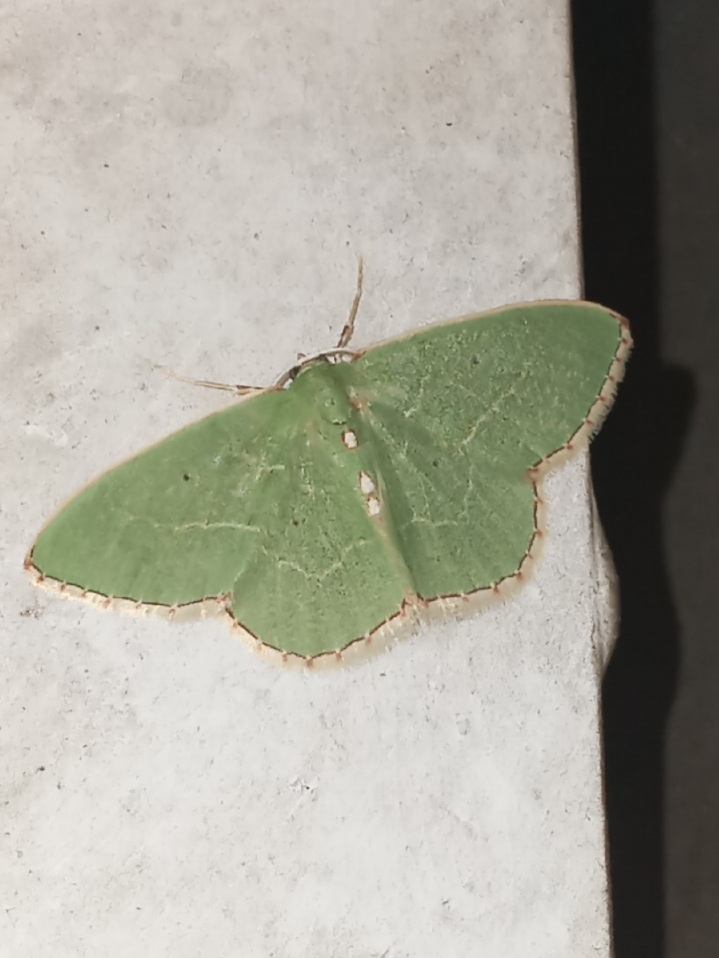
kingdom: Animalia
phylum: Arthropoda
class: Insecta
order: Lepidoptera
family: Geometridae
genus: Nemoria
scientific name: Nemoria lixaria
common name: Red-bordered emerald
